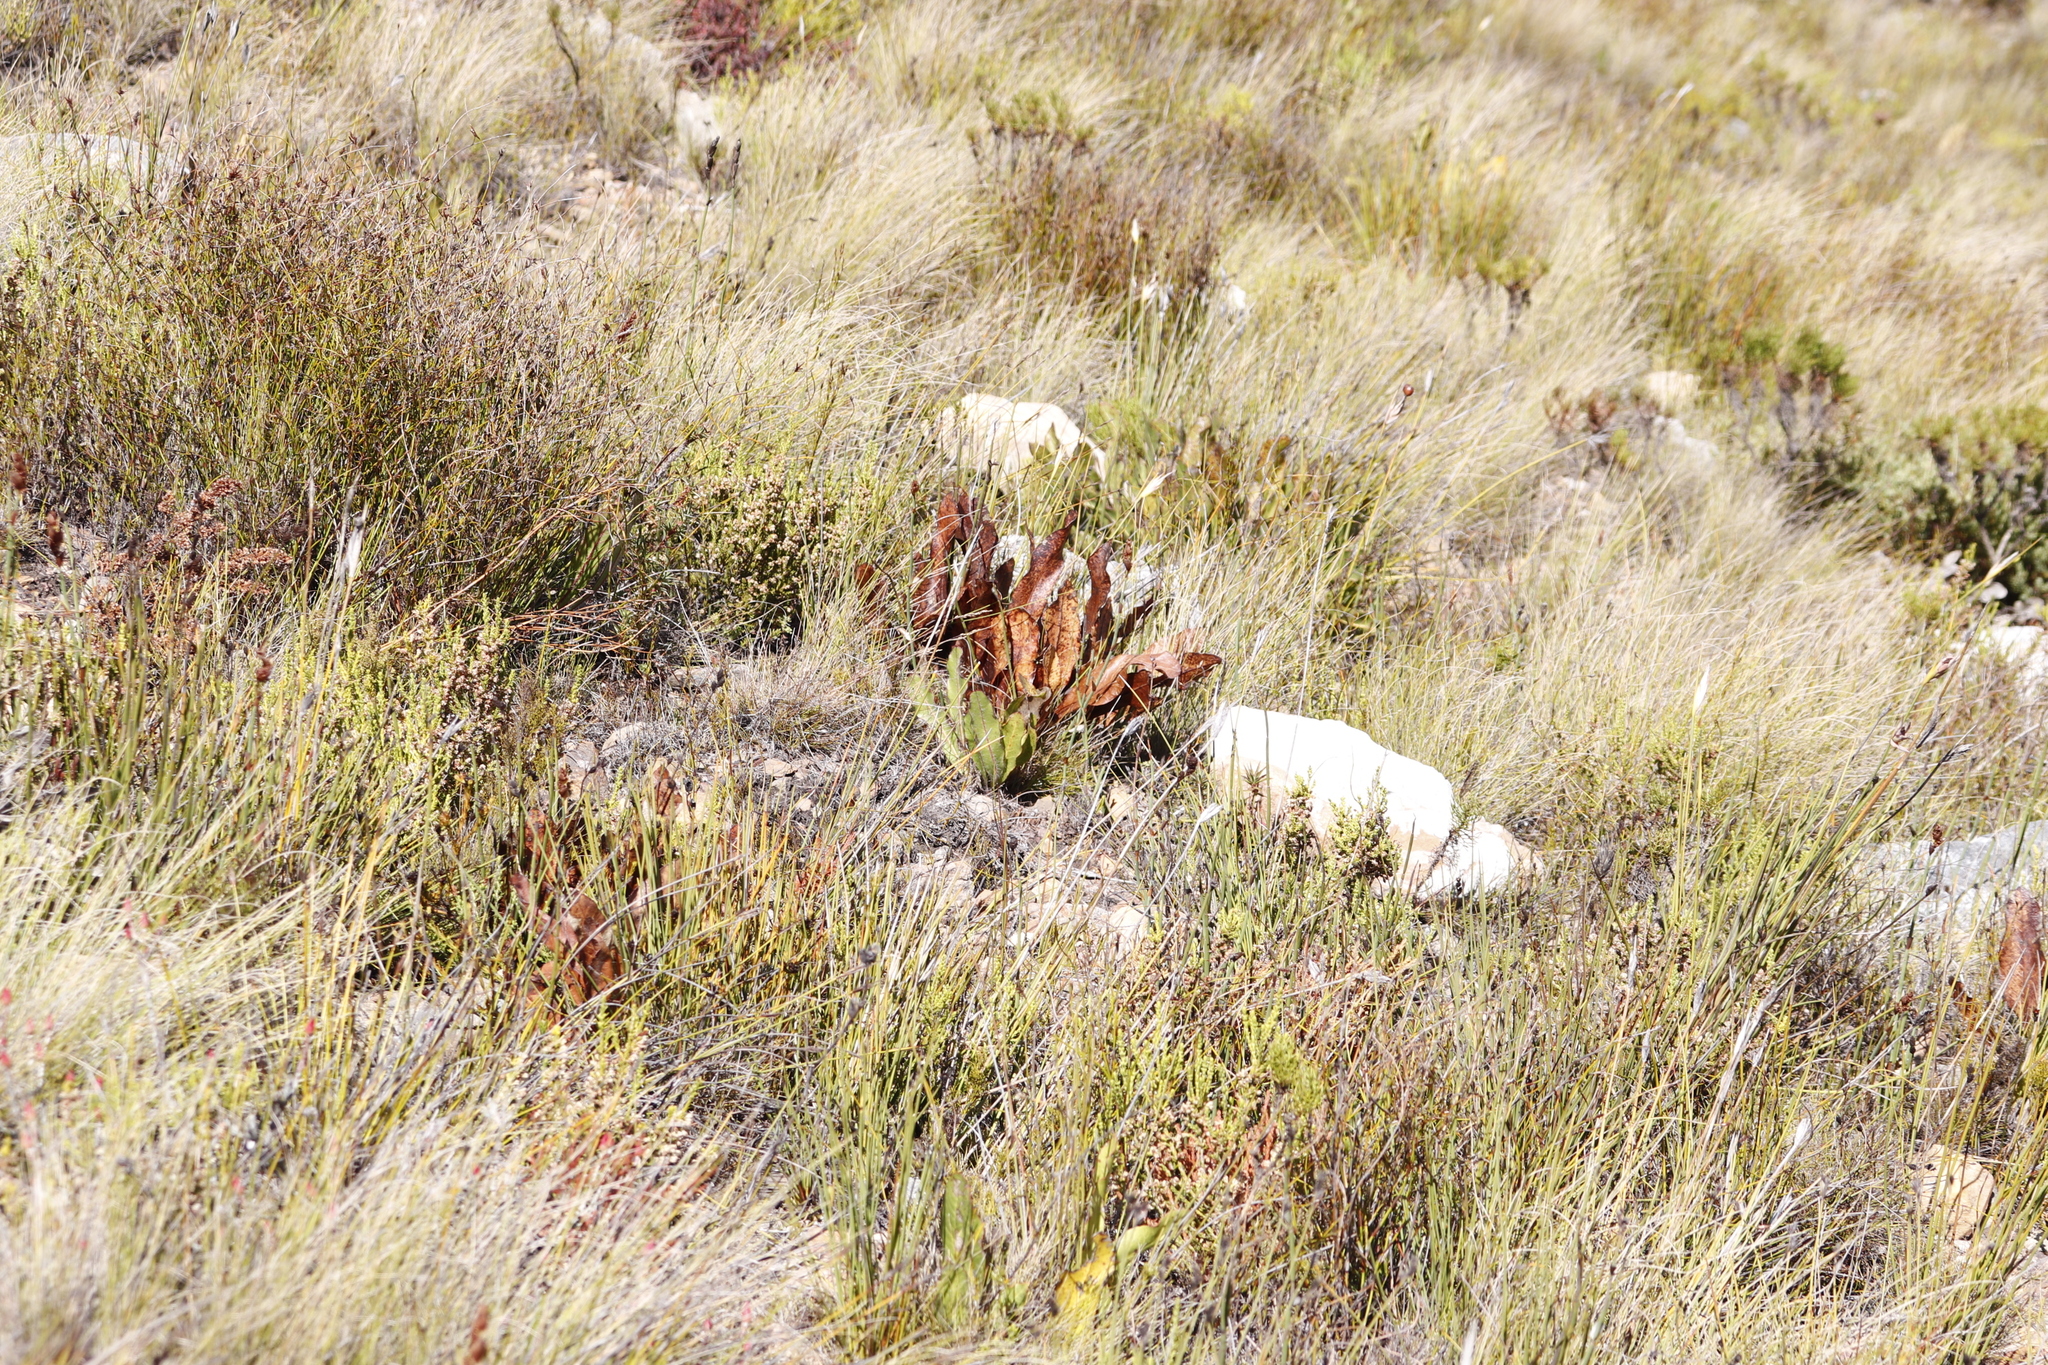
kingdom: Plantae
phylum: Tracheophyta
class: Magnoliopsida
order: Proteales
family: Proteaceae
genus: Protea
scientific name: Protea scolopendriifolia
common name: Harts-tongue-fern sugarbush
